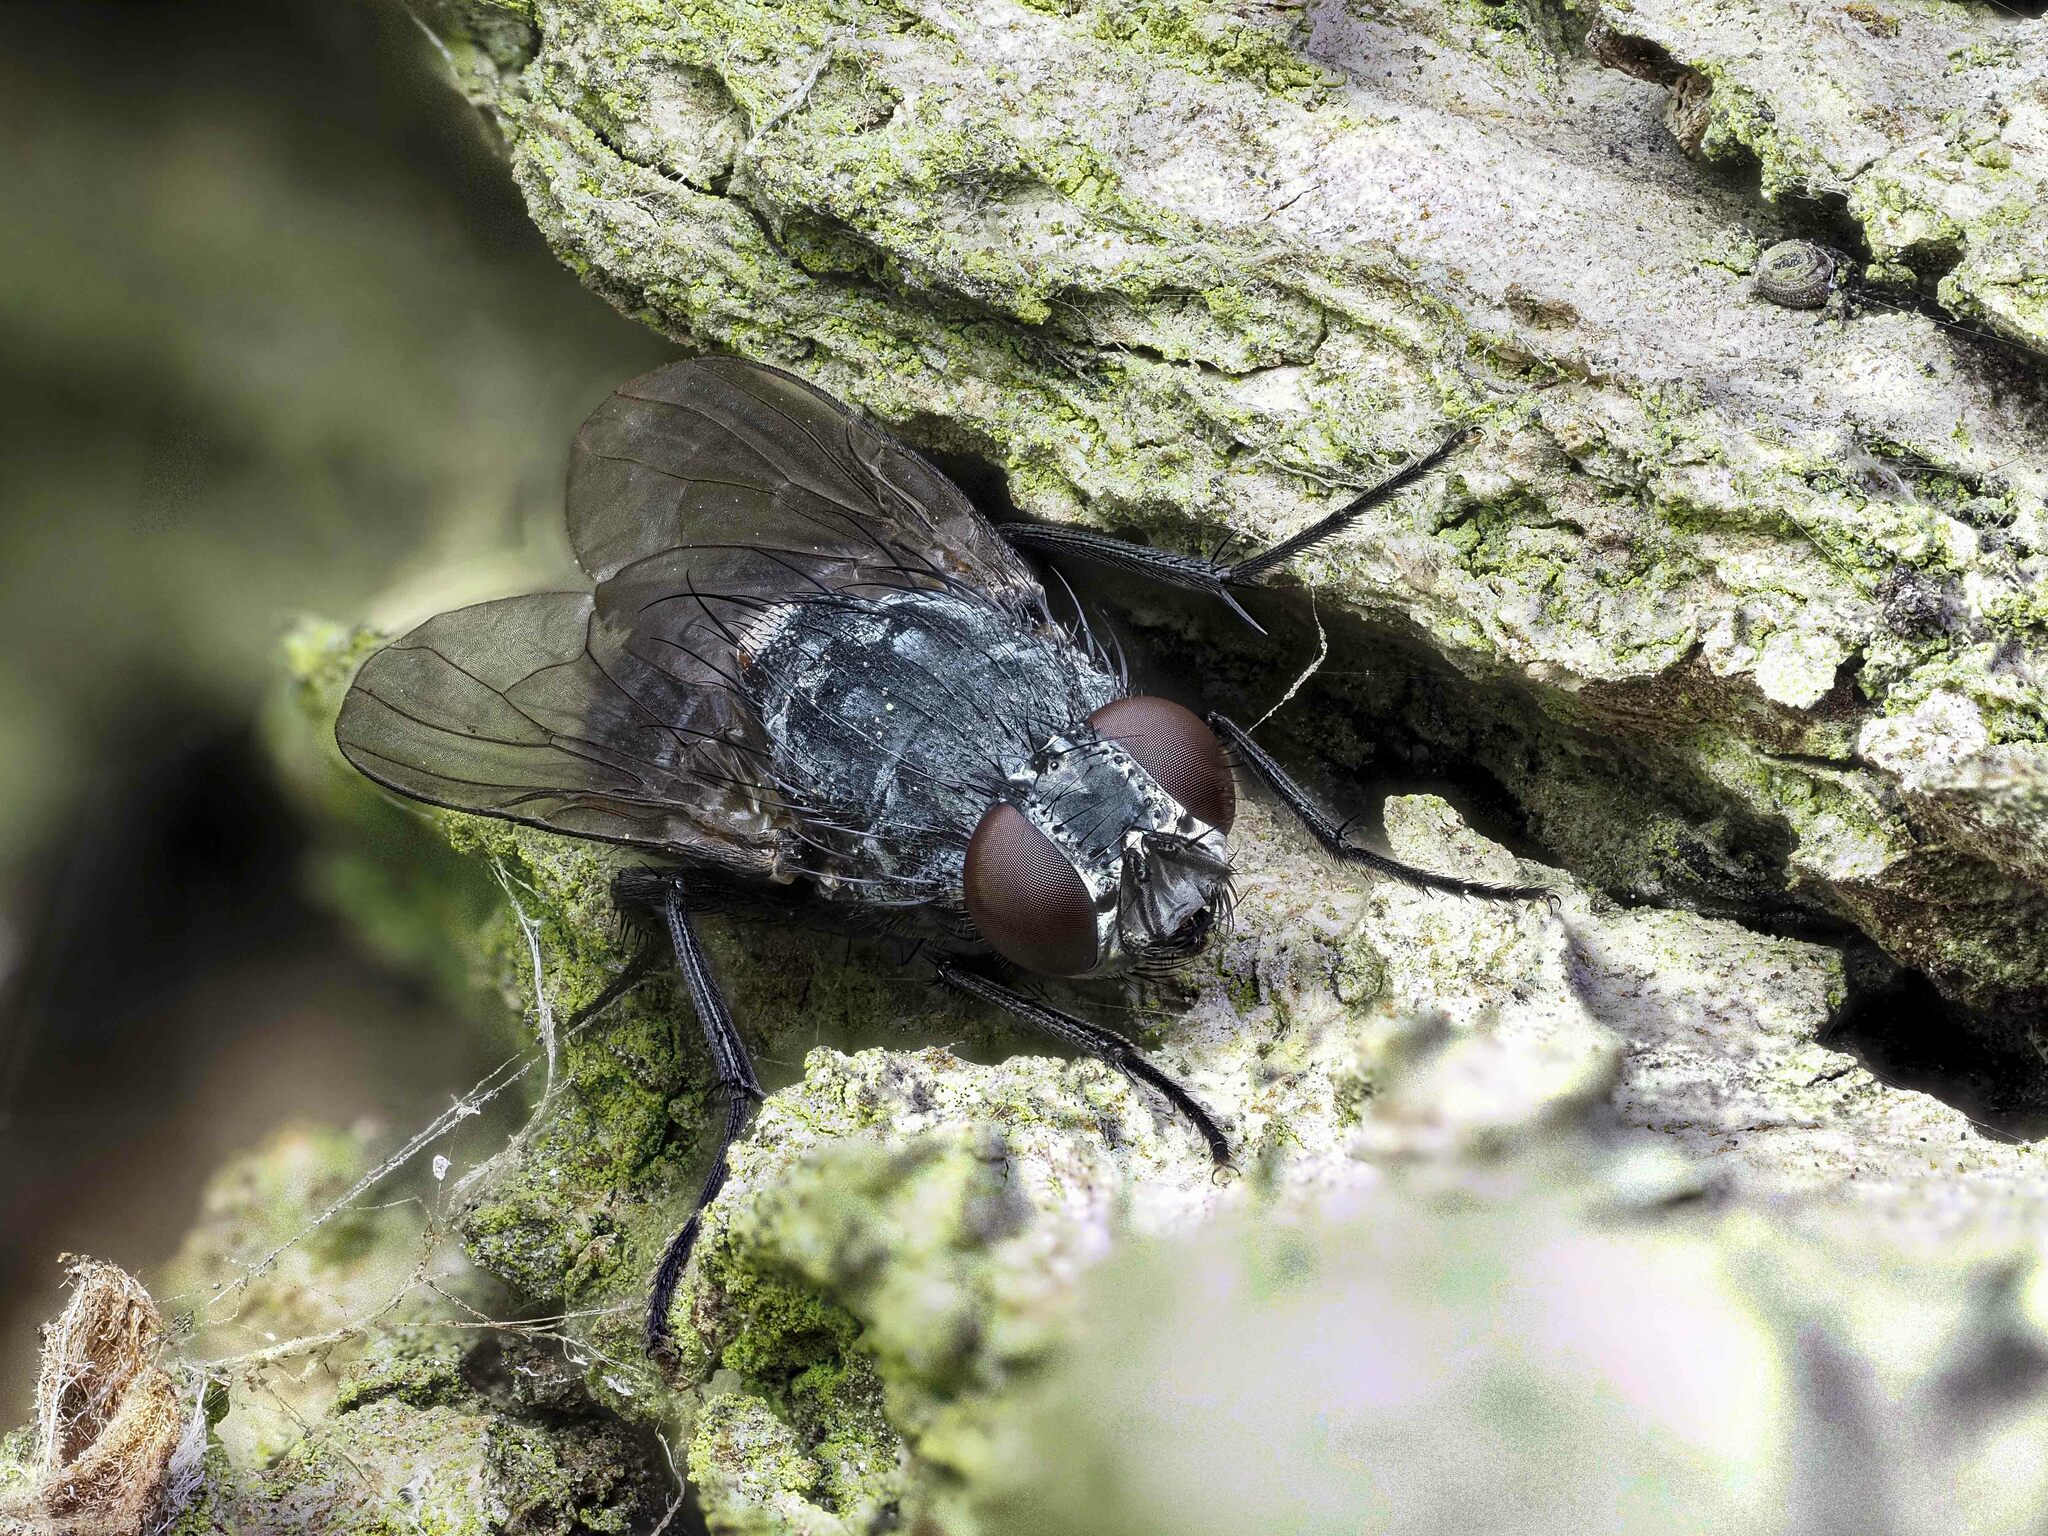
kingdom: Animalia
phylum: Arthropoda
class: Insecta
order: Diptera
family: Muscidae
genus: Muscina
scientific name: Muscina levida
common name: House fly
